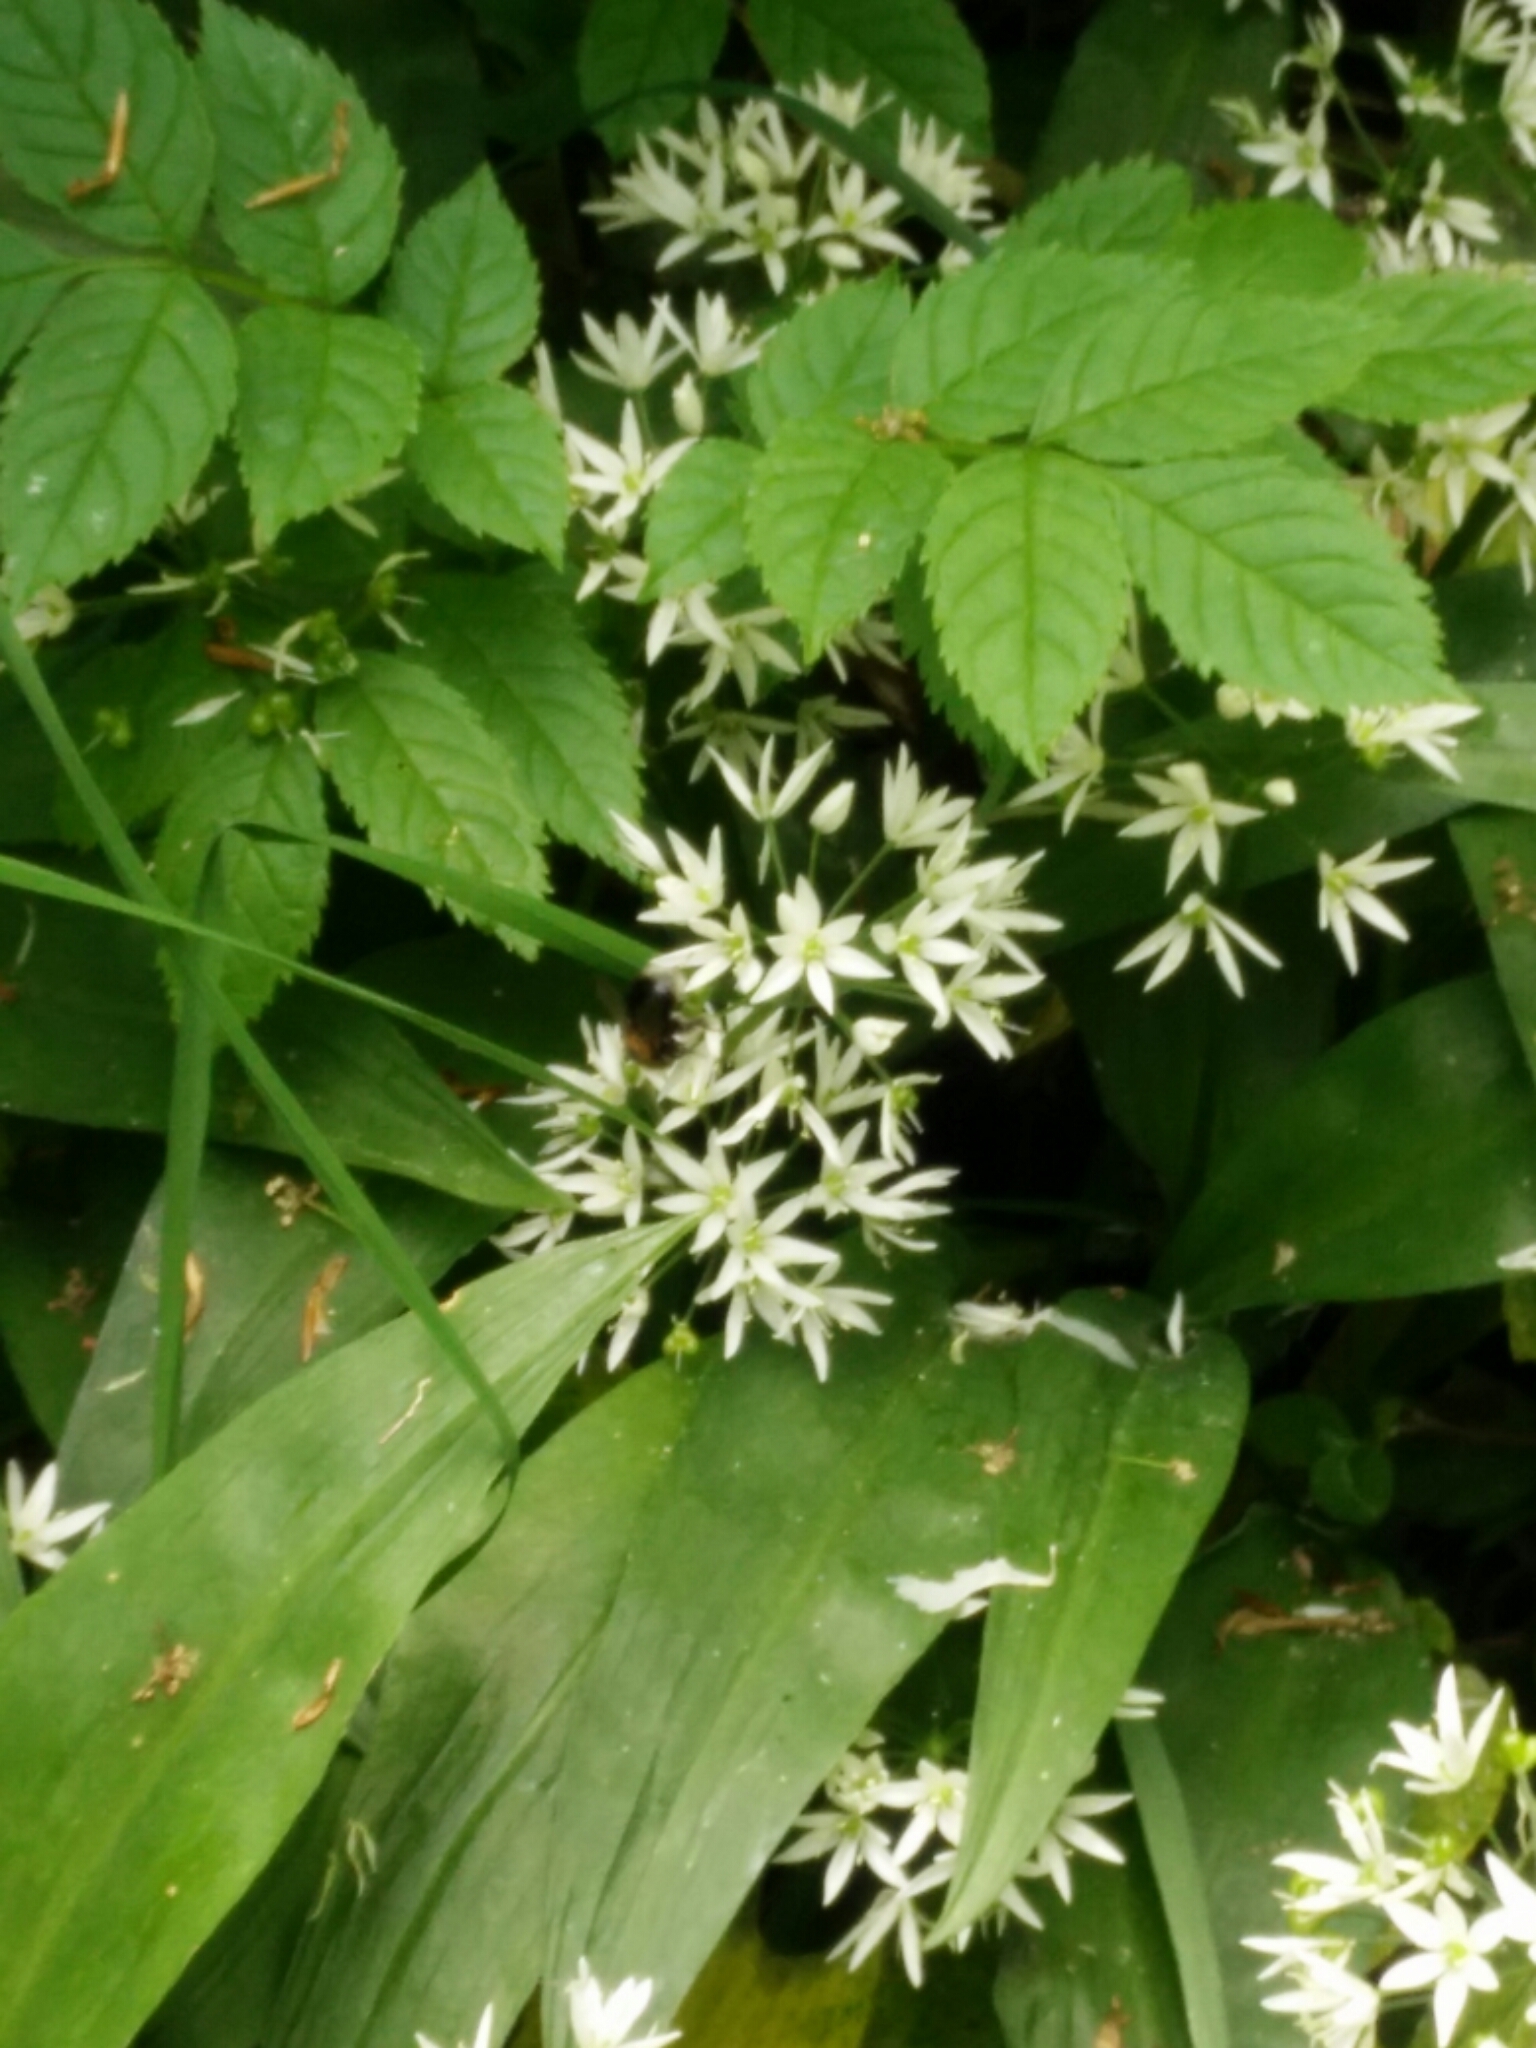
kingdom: Animalia
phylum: Arthropoda
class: Insecta
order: Hymenoptera
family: Apidae
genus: Bombus
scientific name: Bombus hypnorum
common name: New garden bumblebee
